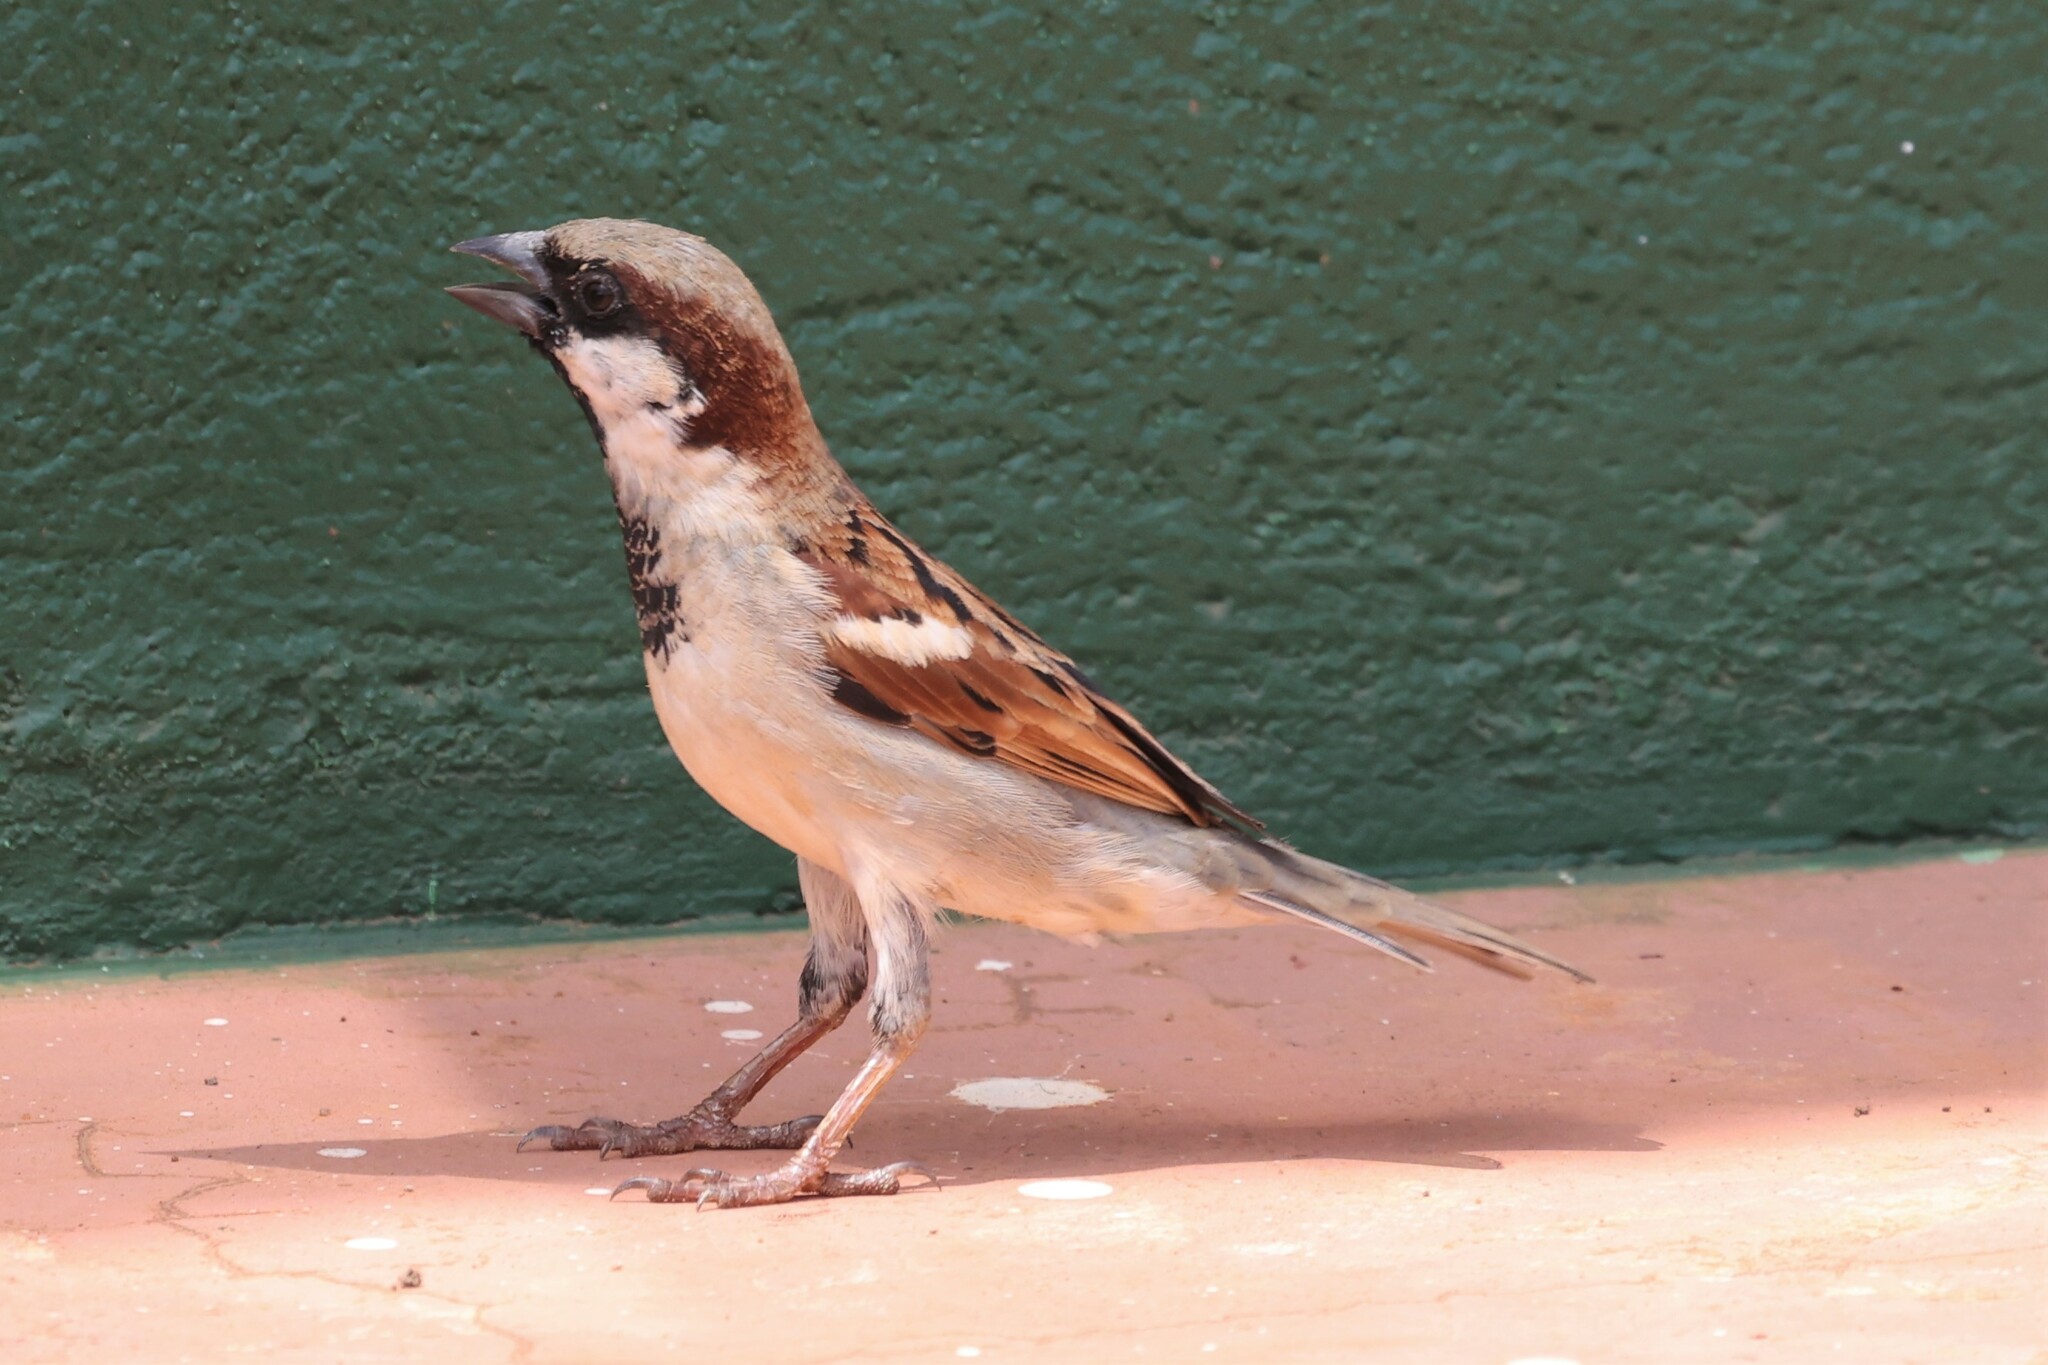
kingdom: Animalia
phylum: Chordata
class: Aves
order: Passeriformes
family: Passeridae
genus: Passer
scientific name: Passer domesticus
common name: House sparrow
